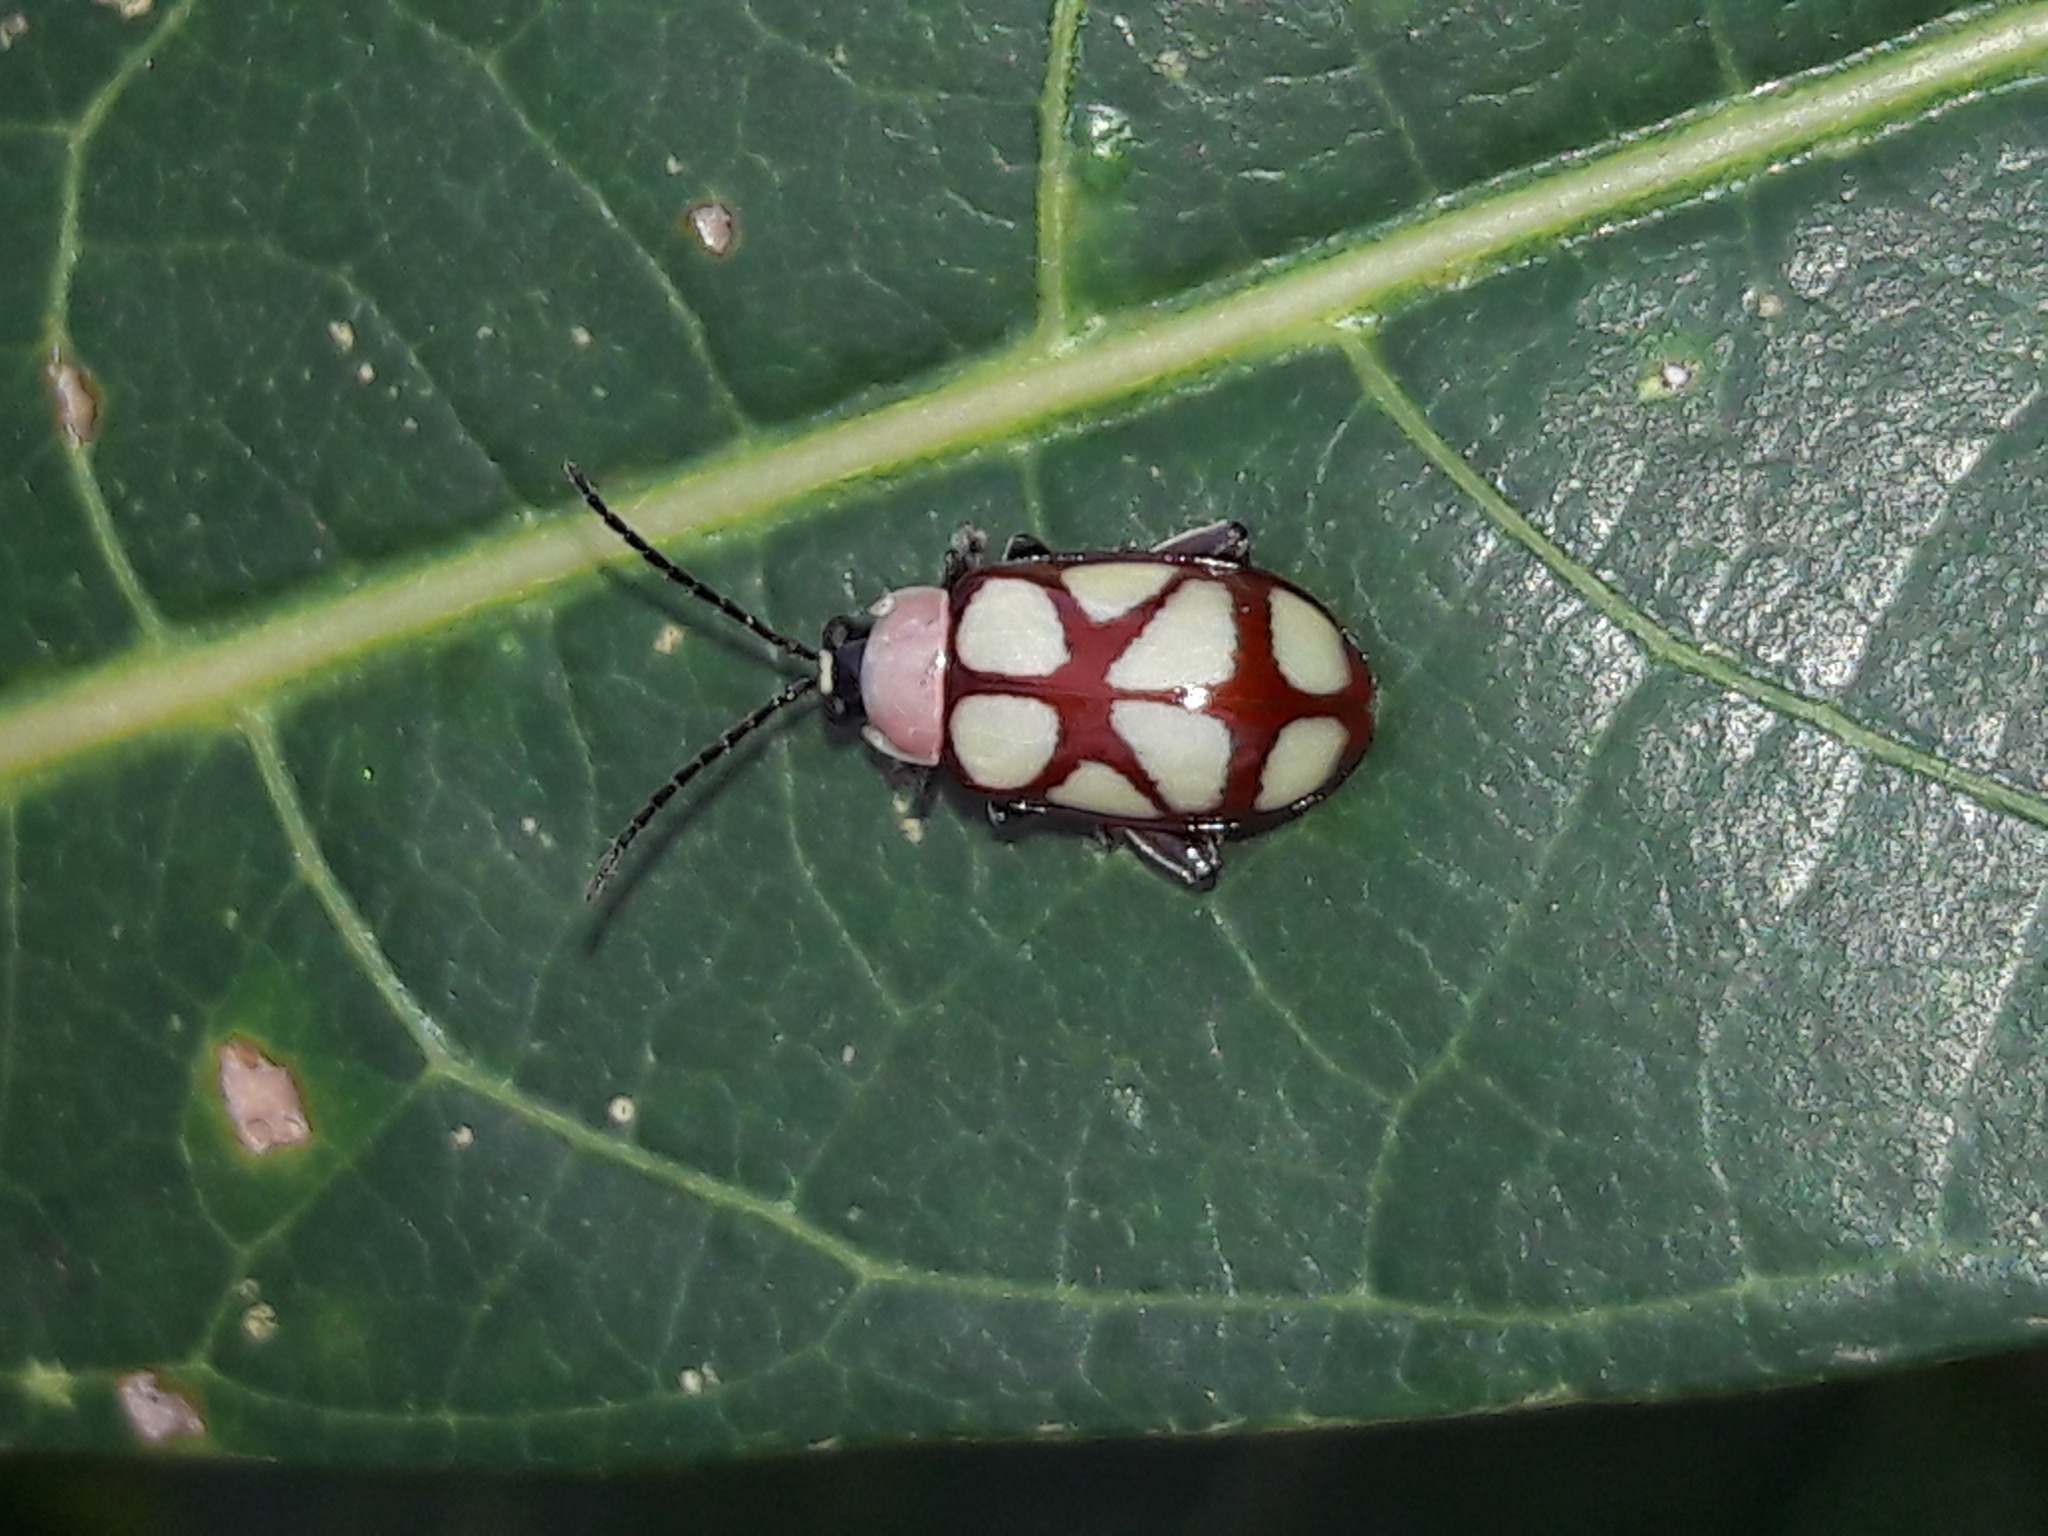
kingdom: Animalia
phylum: Arthropoda
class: Insecta
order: Coleoptera
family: Chrysomelidae
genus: Omophoita
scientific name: Omophoita
